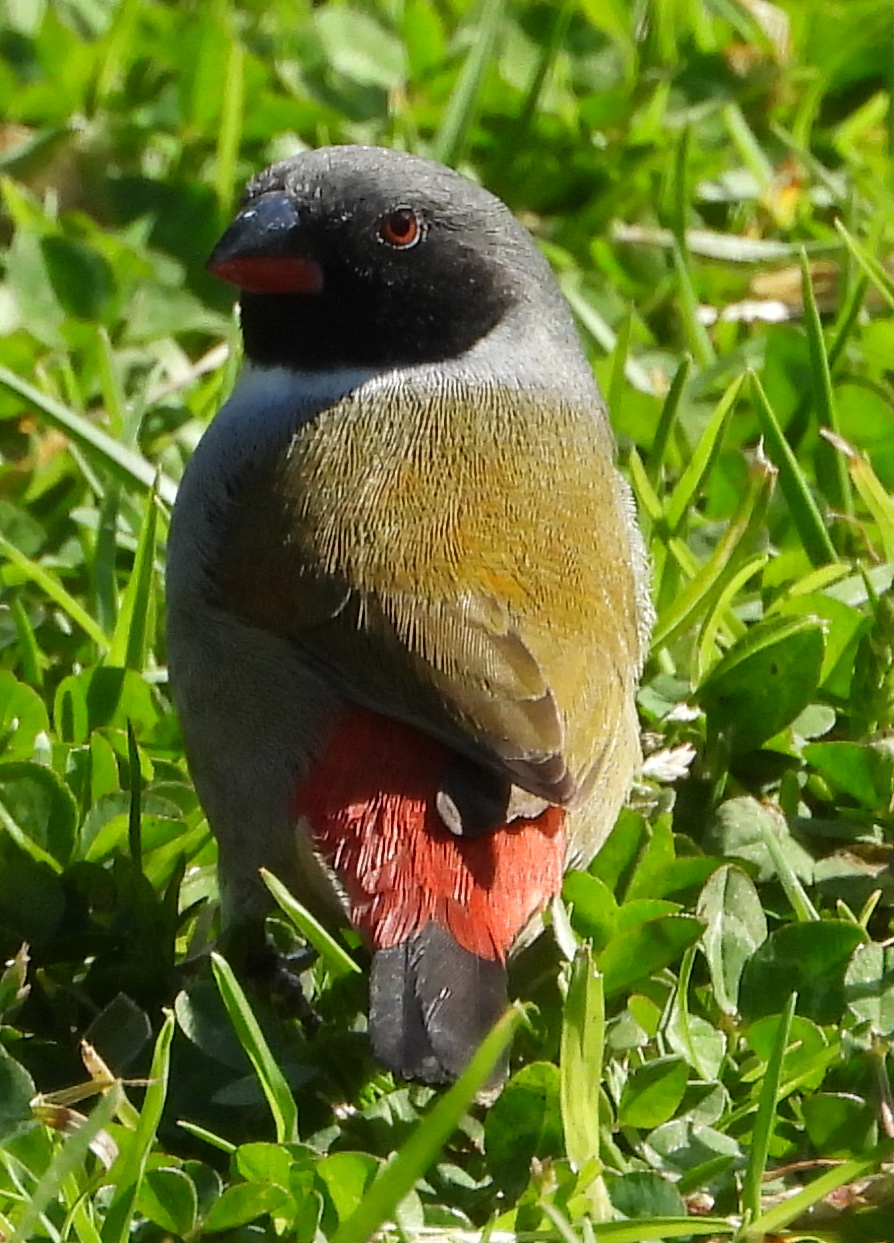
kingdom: Animalia
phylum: Chordata
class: Aves
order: Passeriformes
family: Estrildidae
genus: Coccopygia
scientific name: Coccopygia melanotis
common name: Swee waxbill
